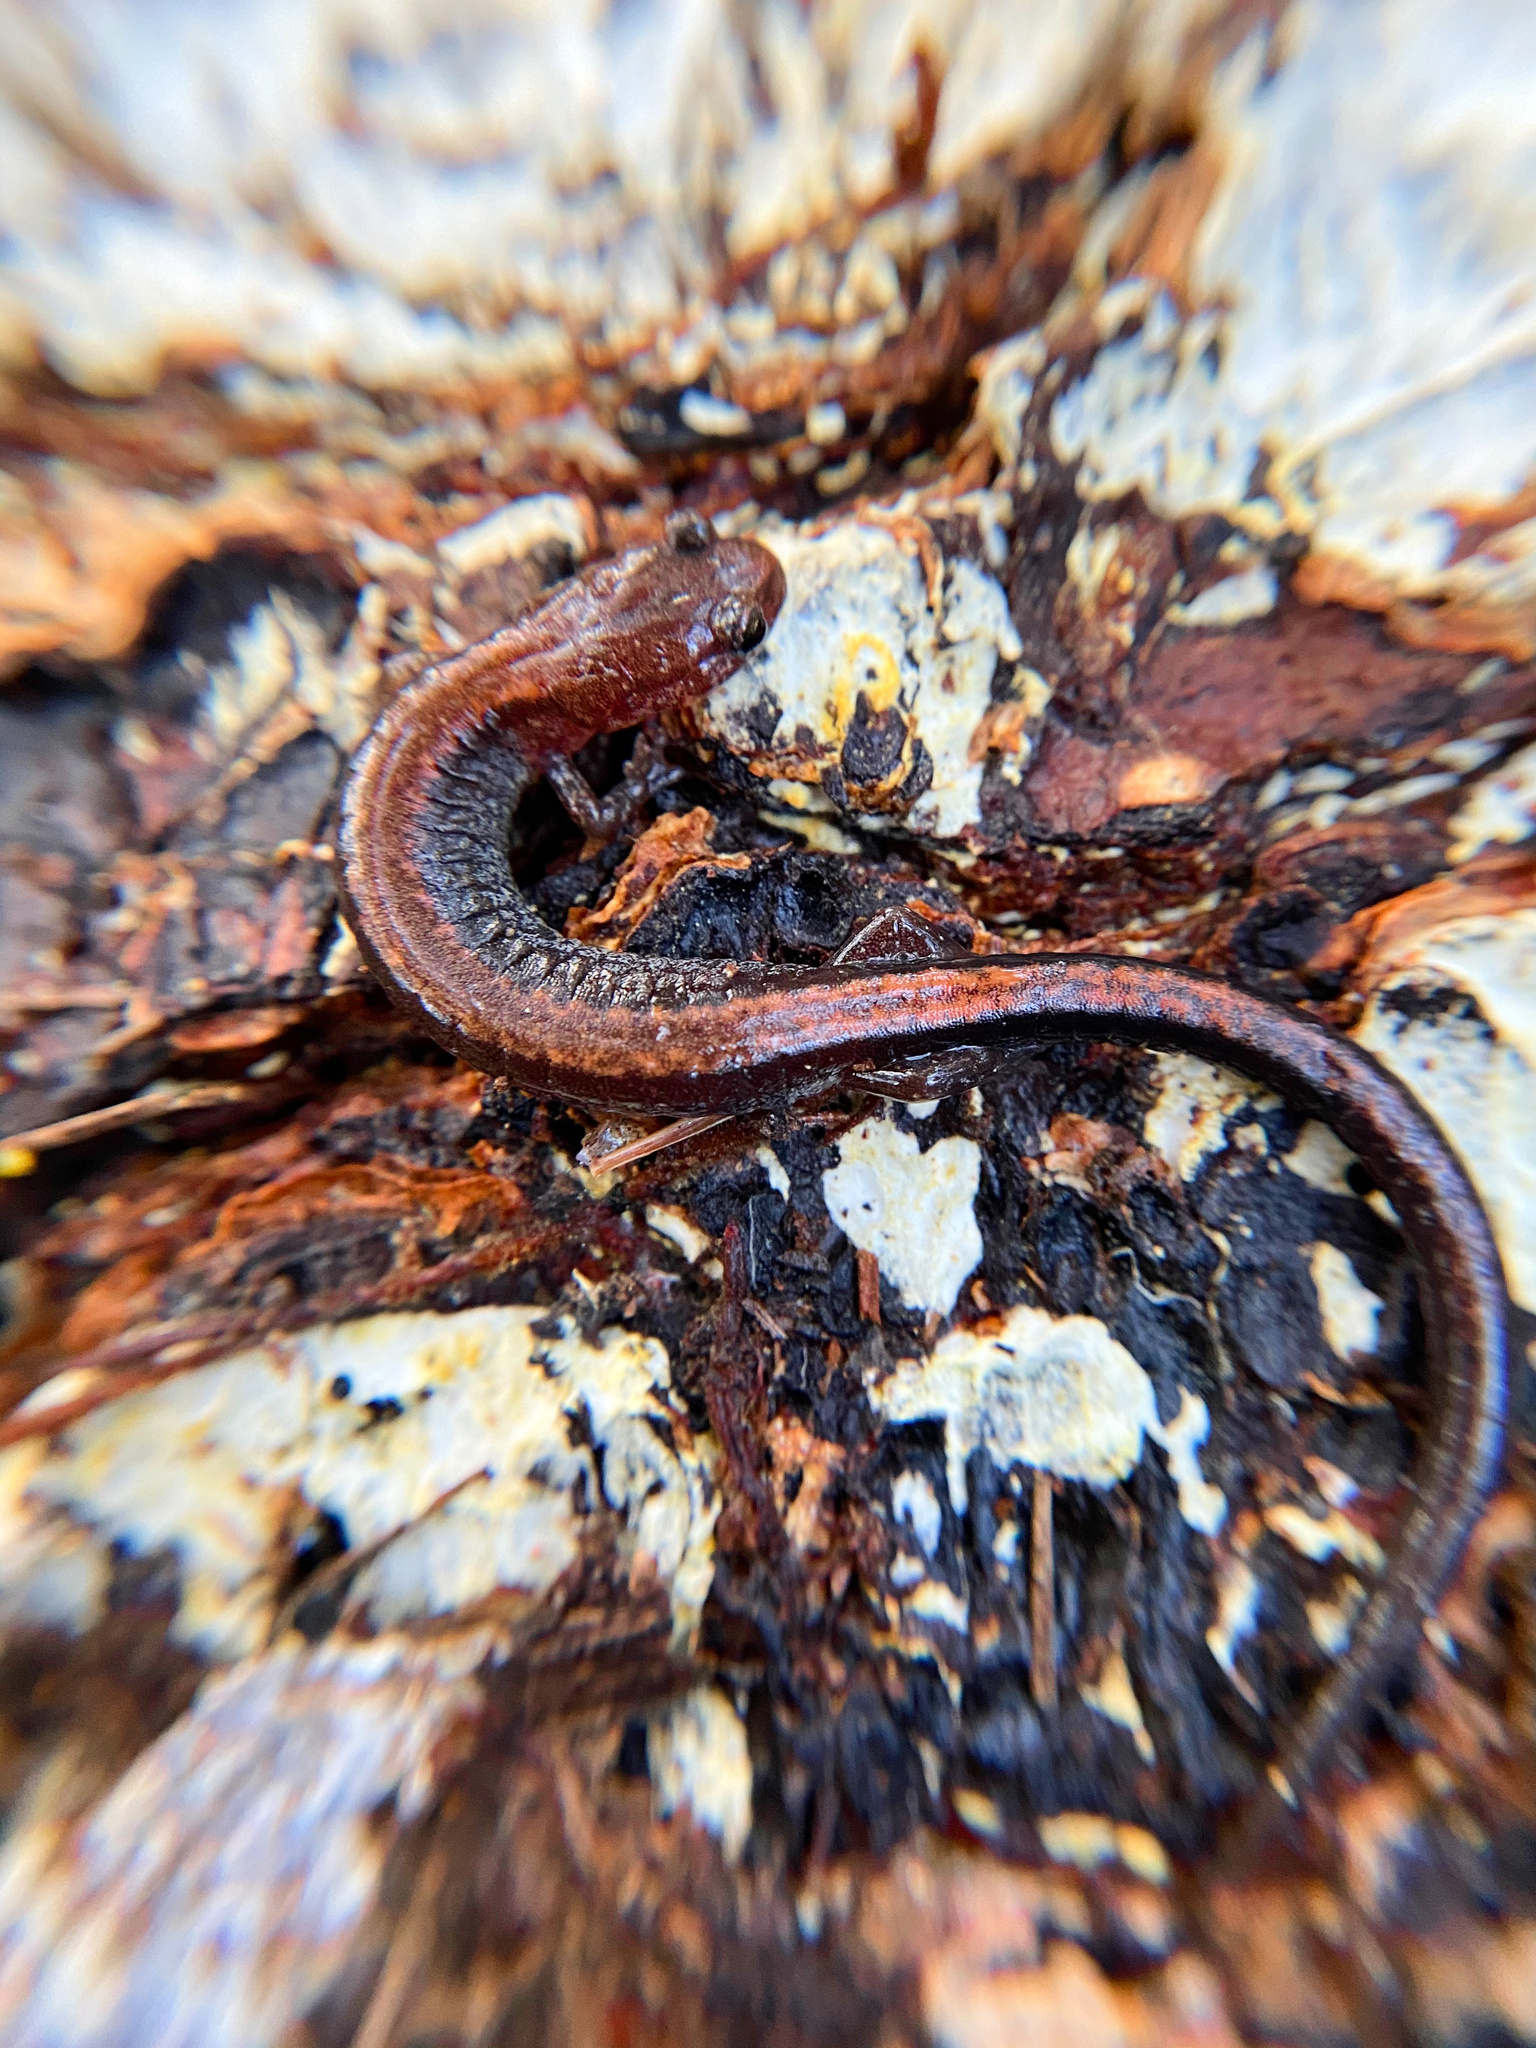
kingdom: Animalia
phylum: Chordata
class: Amphibia
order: Caudata
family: Plethodontidae
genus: Plethodon
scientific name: Plethodon cinereus
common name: Redback salamander
